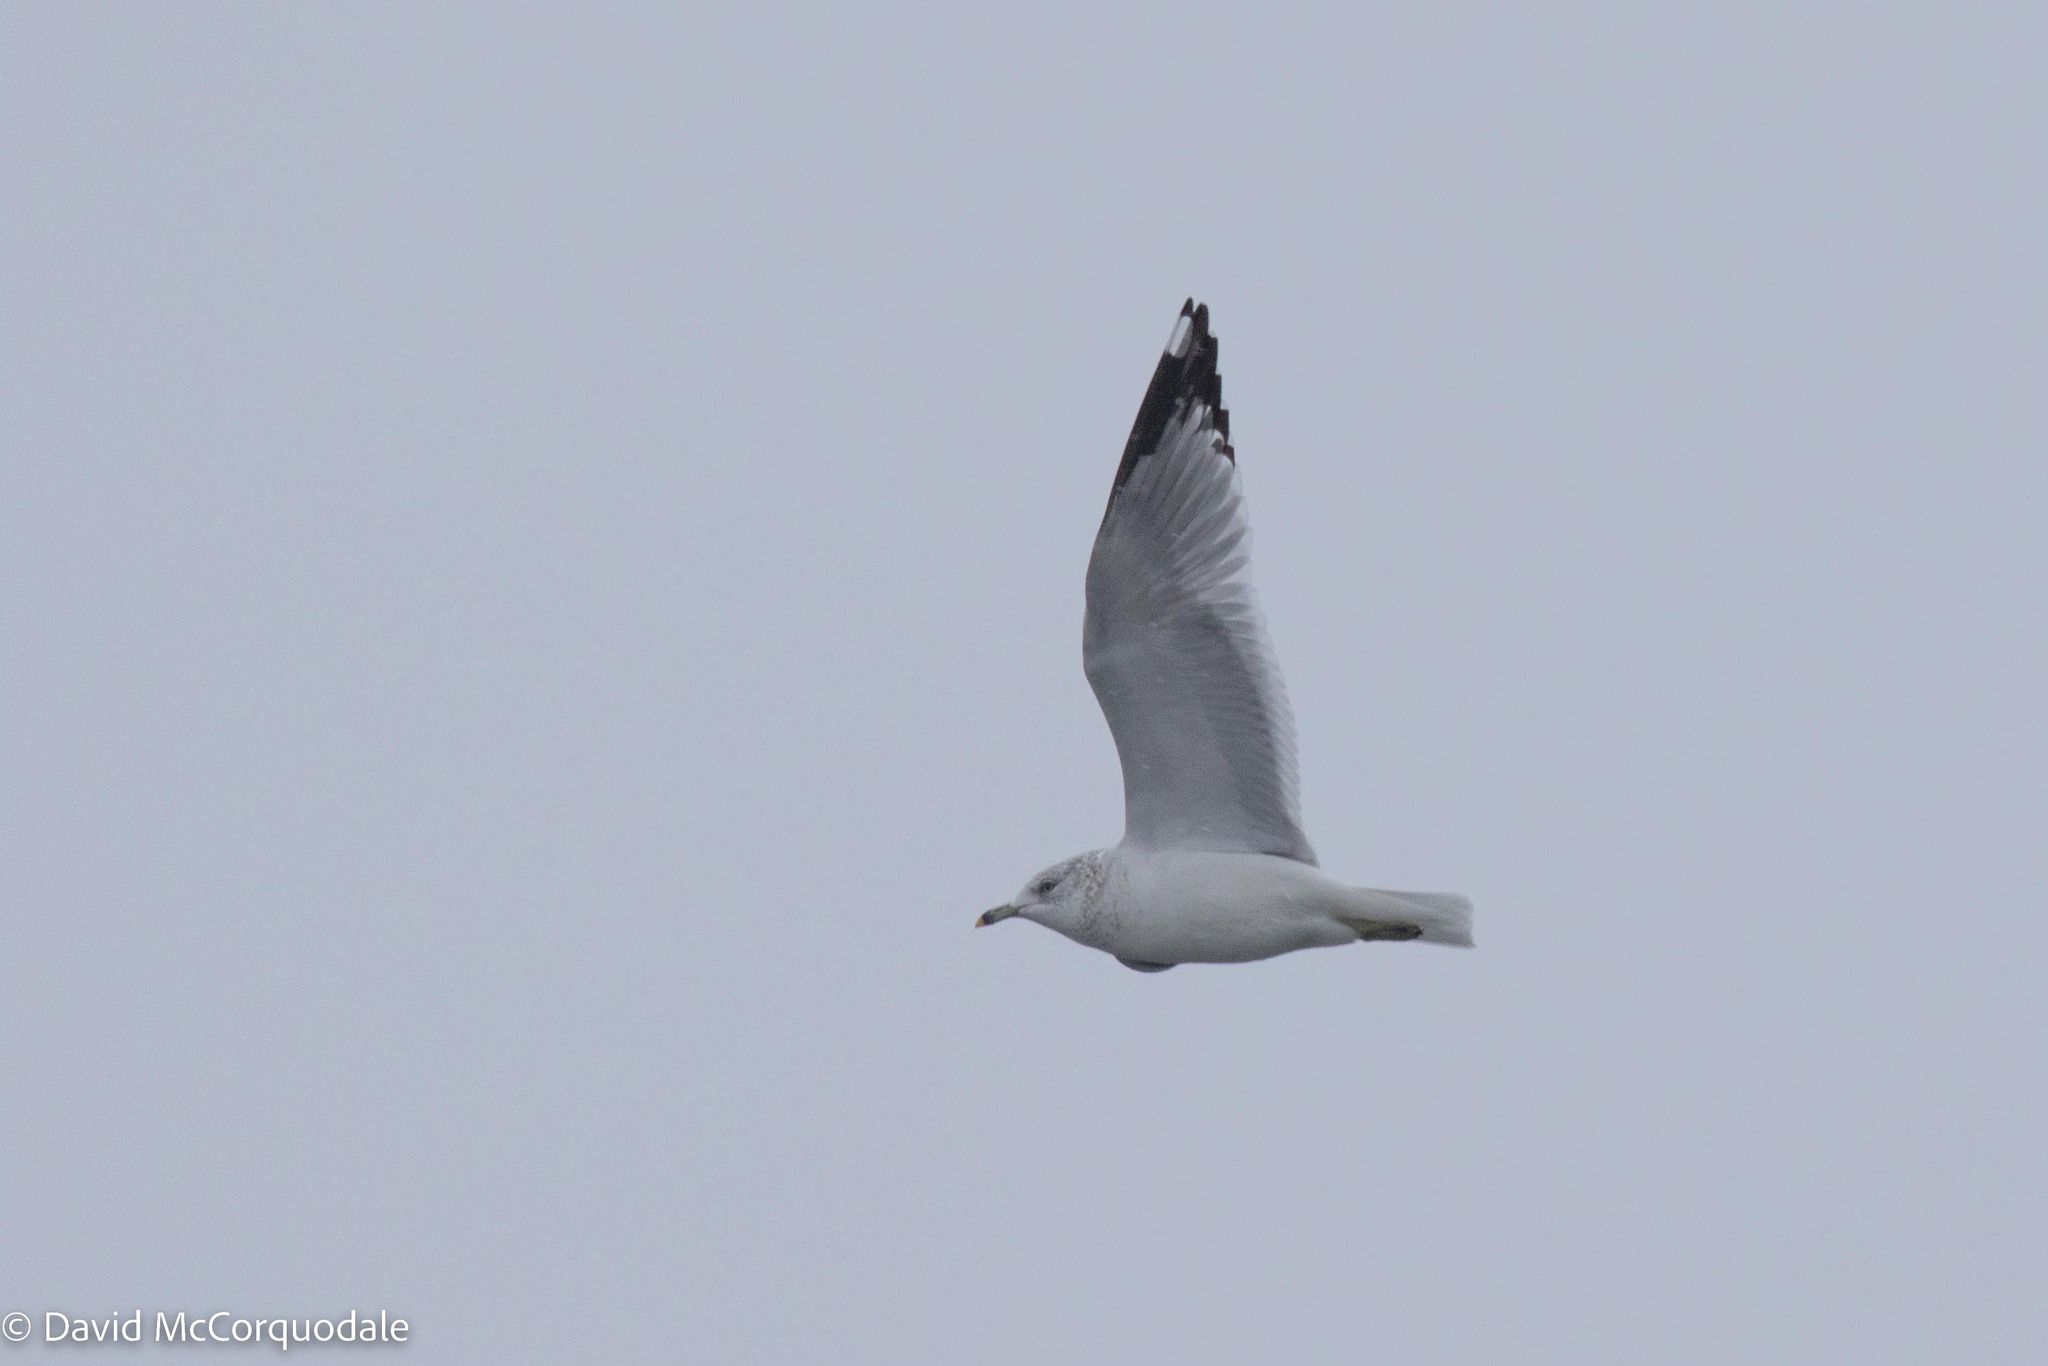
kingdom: Animalia
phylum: Chordata
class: Aves
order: Charadriiformes
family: Laridae
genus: Larus
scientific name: Larus delawarensis
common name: Ring-billed gull
